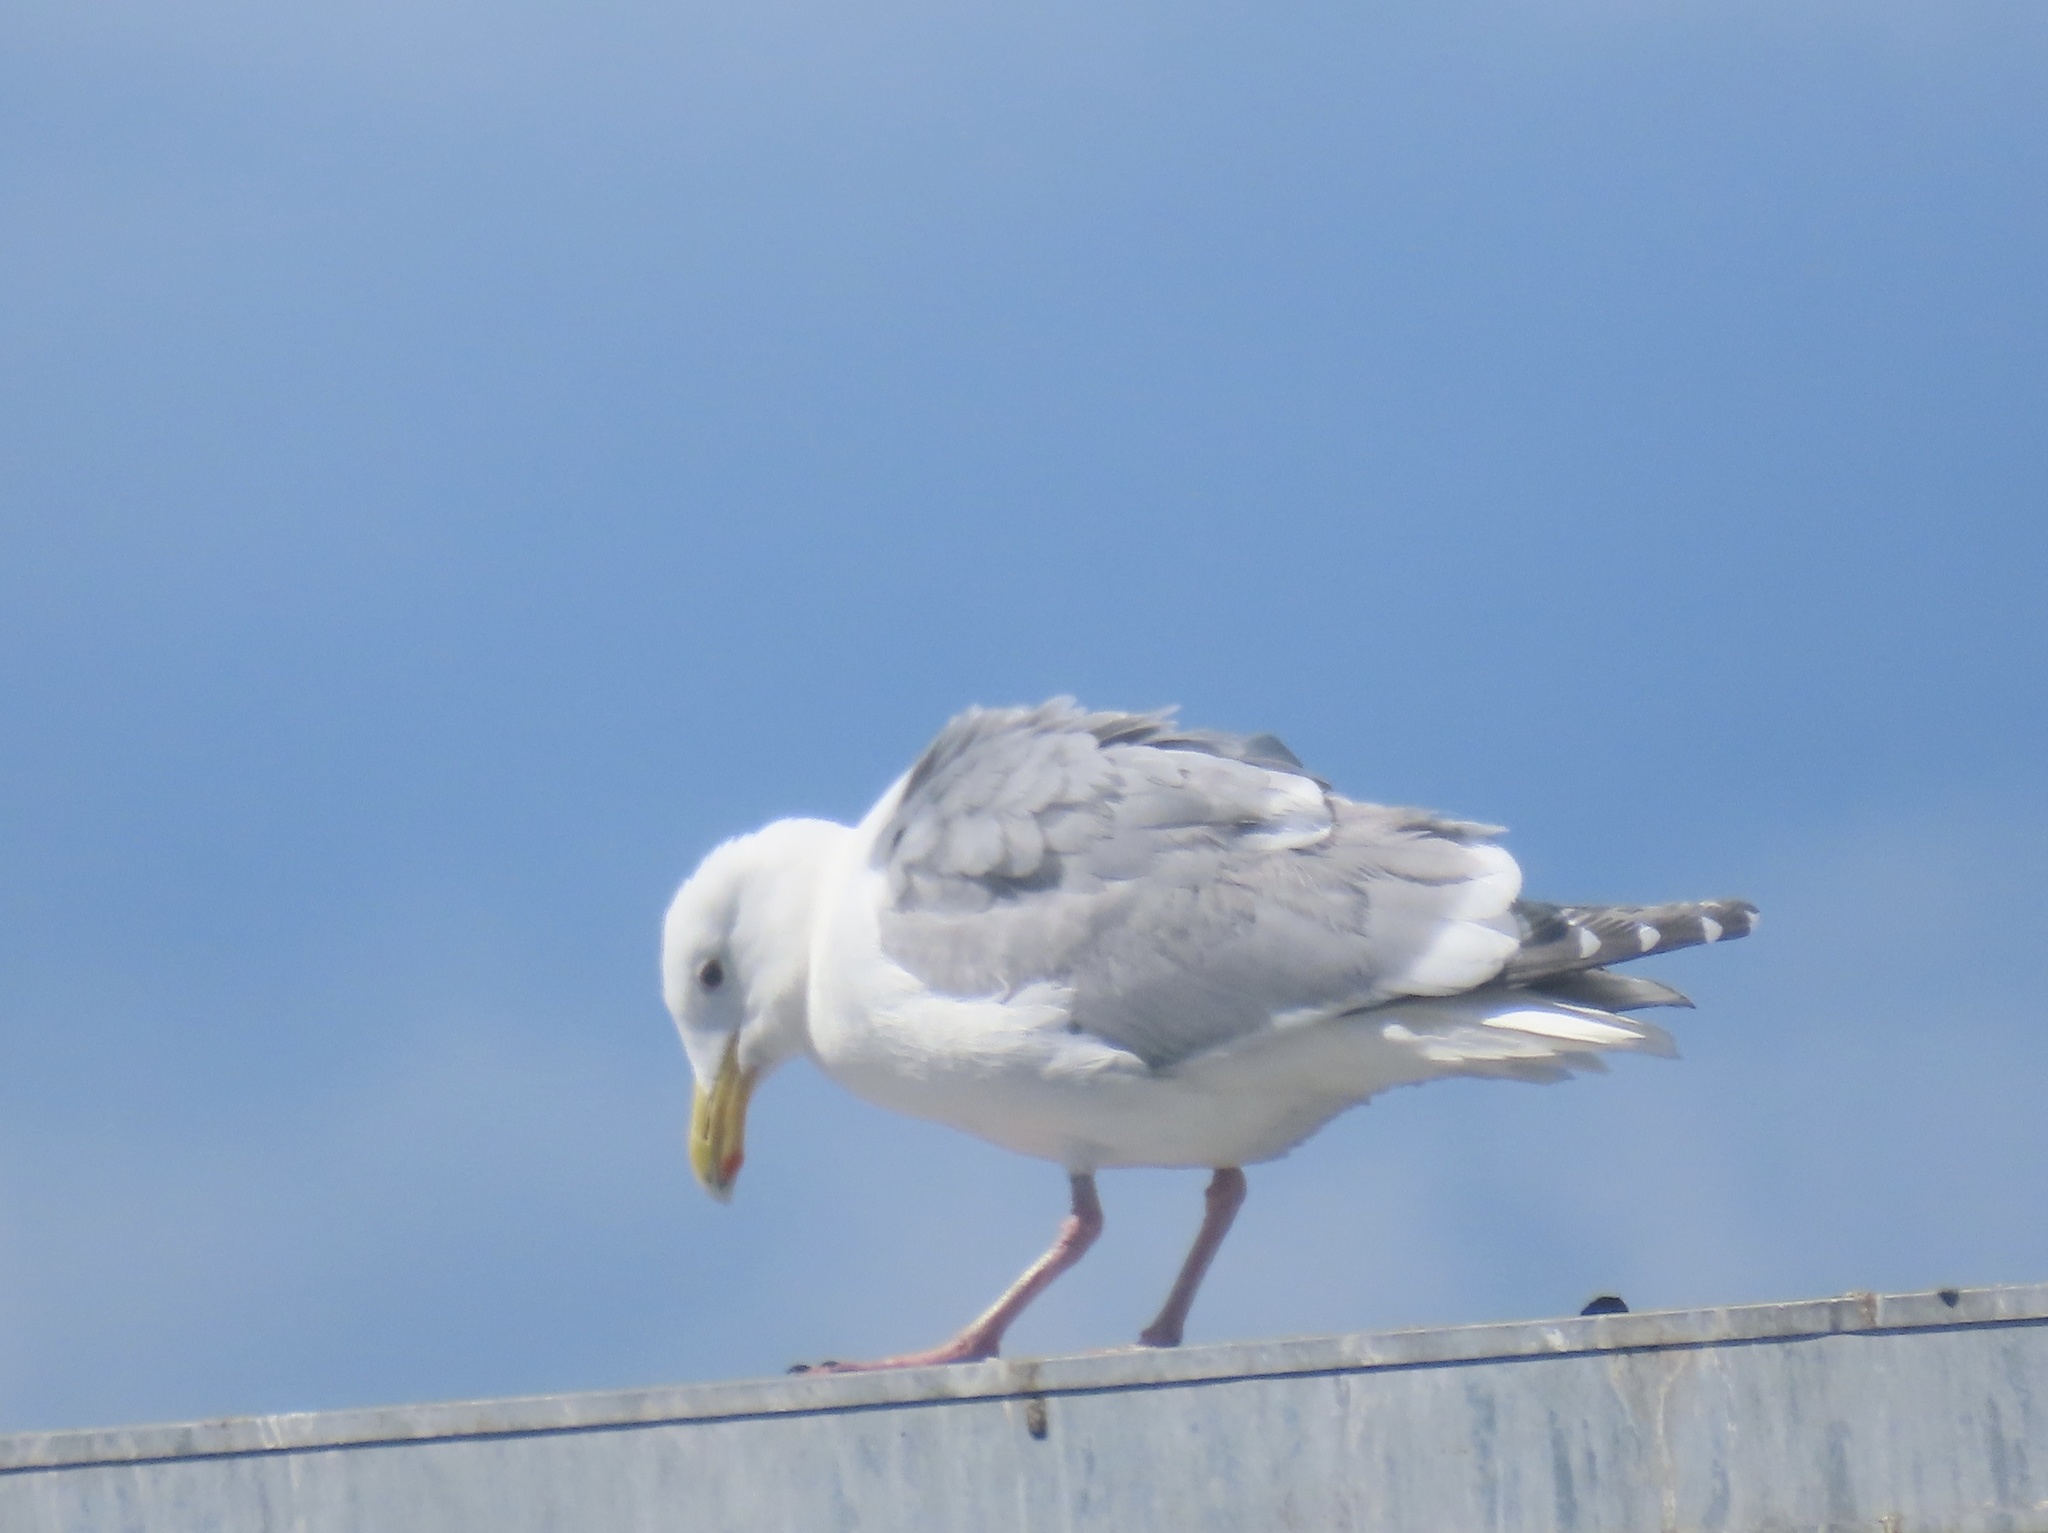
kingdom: Animalia
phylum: Chordata
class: Aves
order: Charadriiformes
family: Laridae
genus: Larus
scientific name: Larus glaucescens
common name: Glaucous-winged gull
